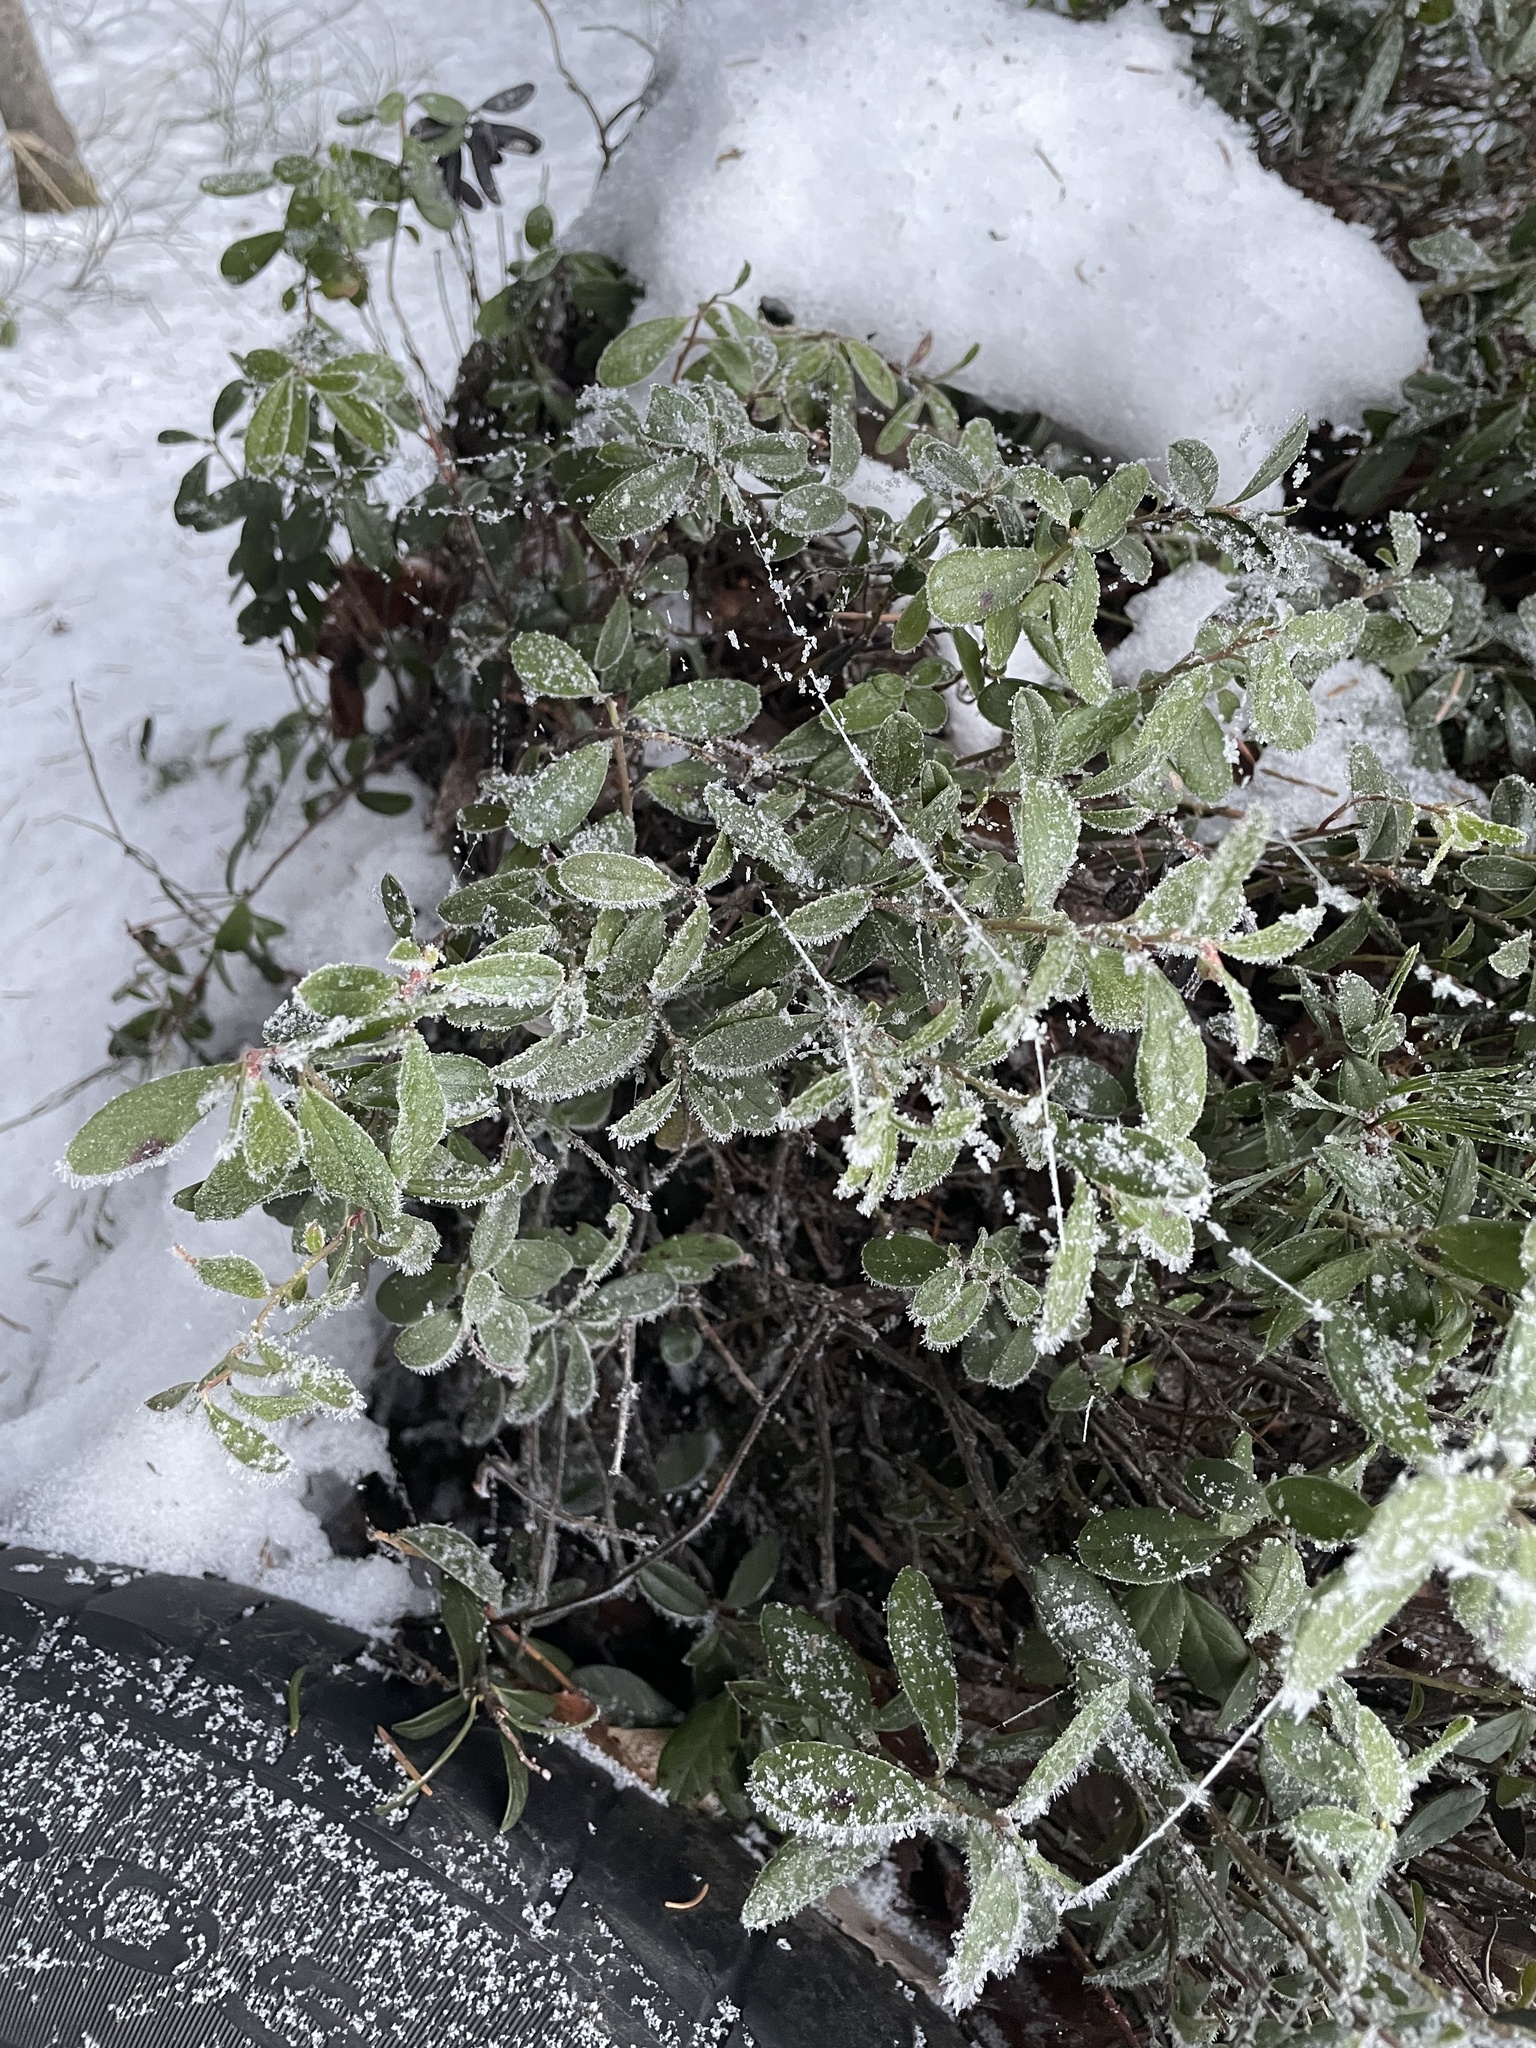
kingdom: Plantae
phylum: Tracheophyta
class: Magnoliopsida
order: Ericales
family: Ericaceae
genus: Vaccinium
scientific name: Vaccinium vitis-idaea
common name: Cowberry
